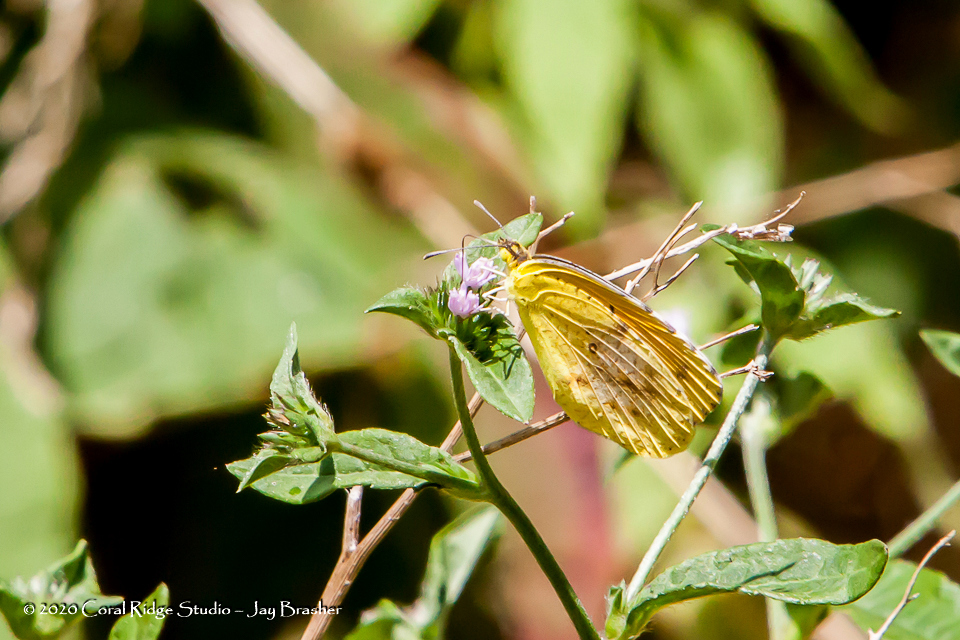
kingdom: Animalia
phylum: Arthropoda
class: Insecta
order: Lepidoptera
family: Pieridae
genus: Abaeis
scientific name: Abaeis nicippe
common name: Sleepy orange
